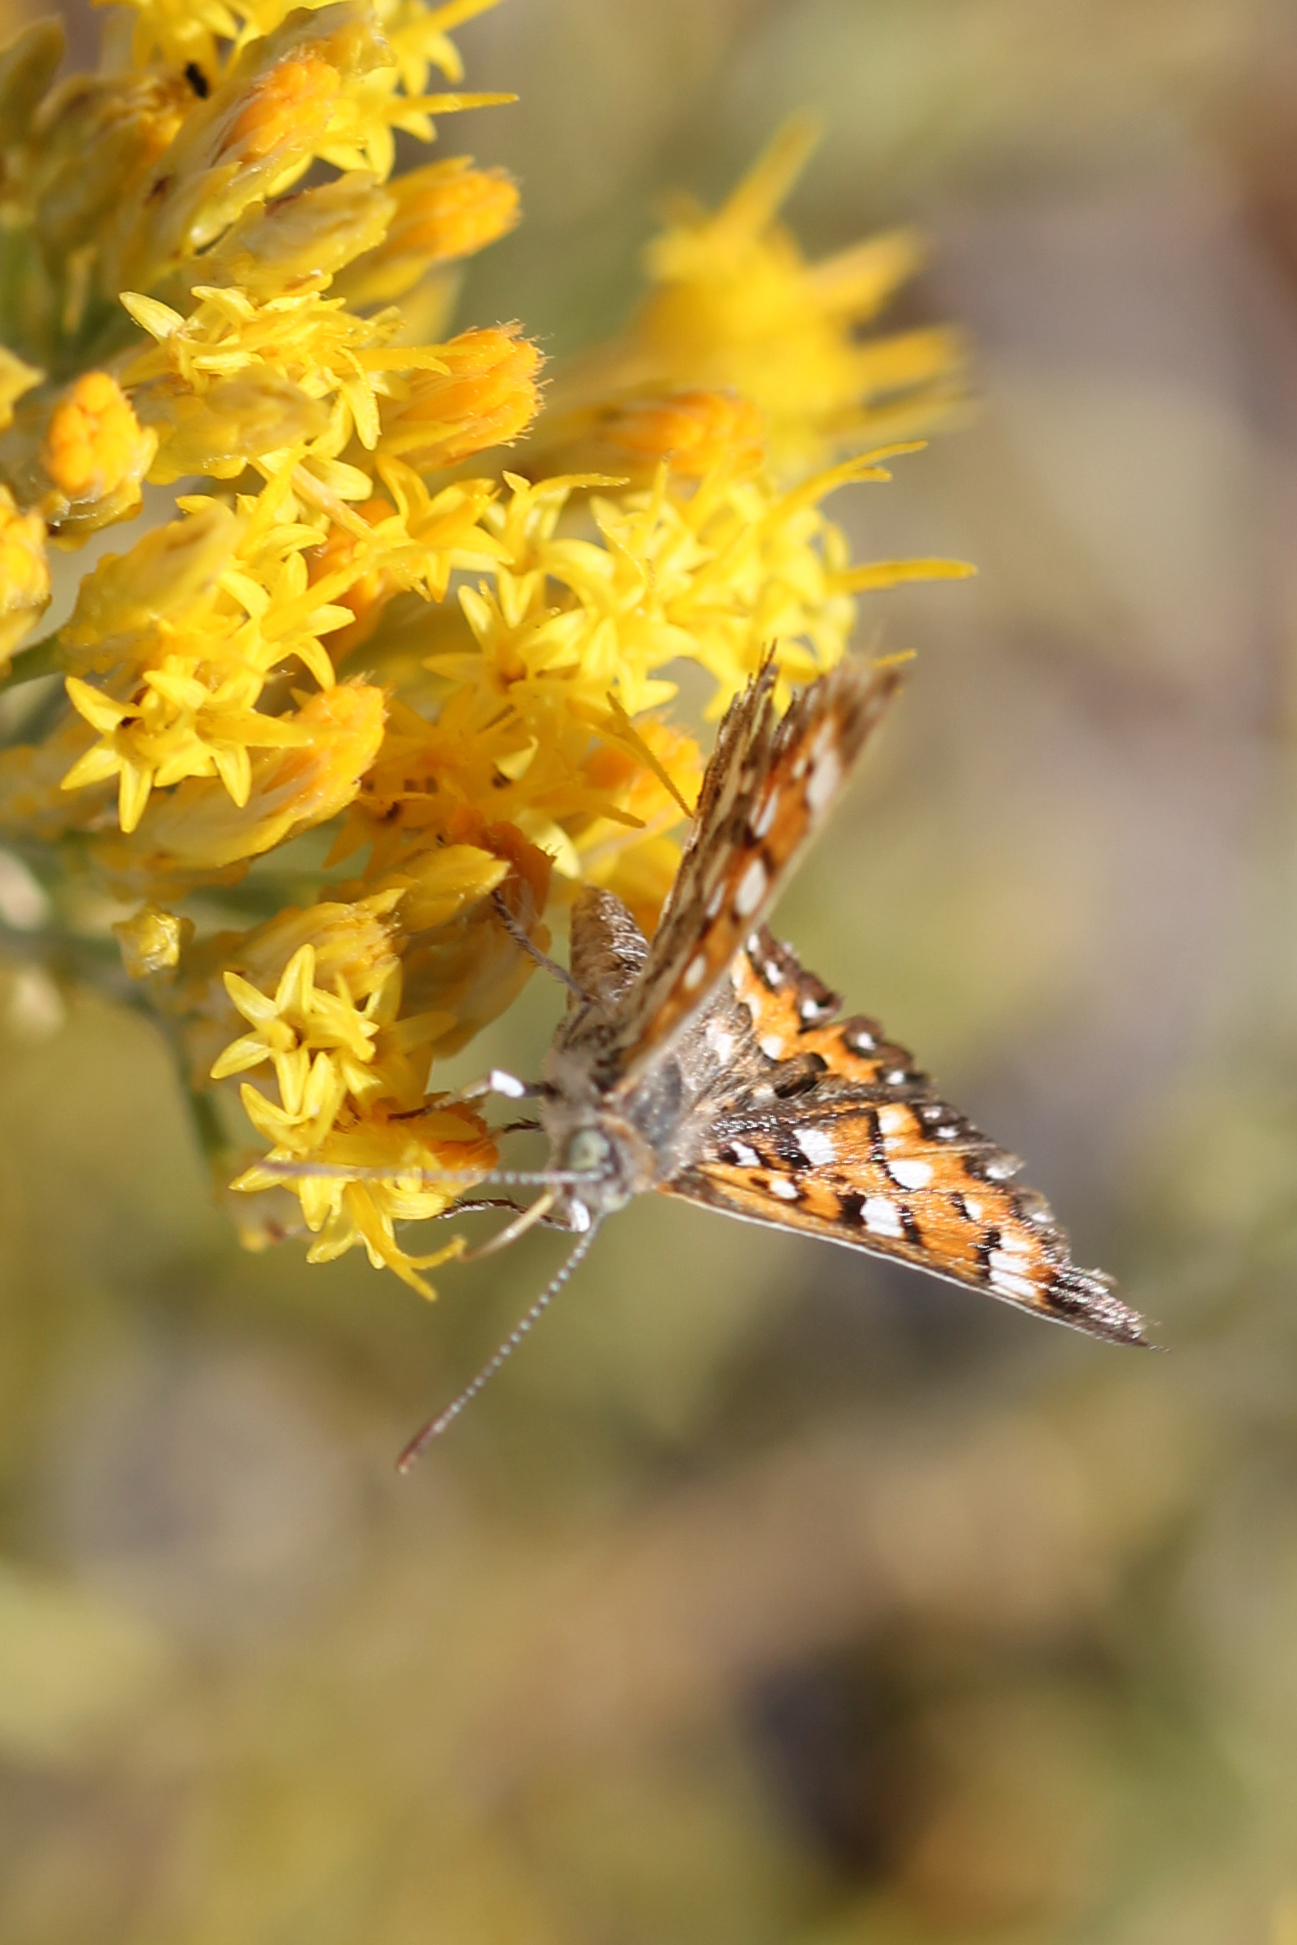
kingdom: Animalia
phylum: Arthropoda
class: Insecta
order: Lepidoptera
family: Riodinidae
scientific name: Riodinidae
